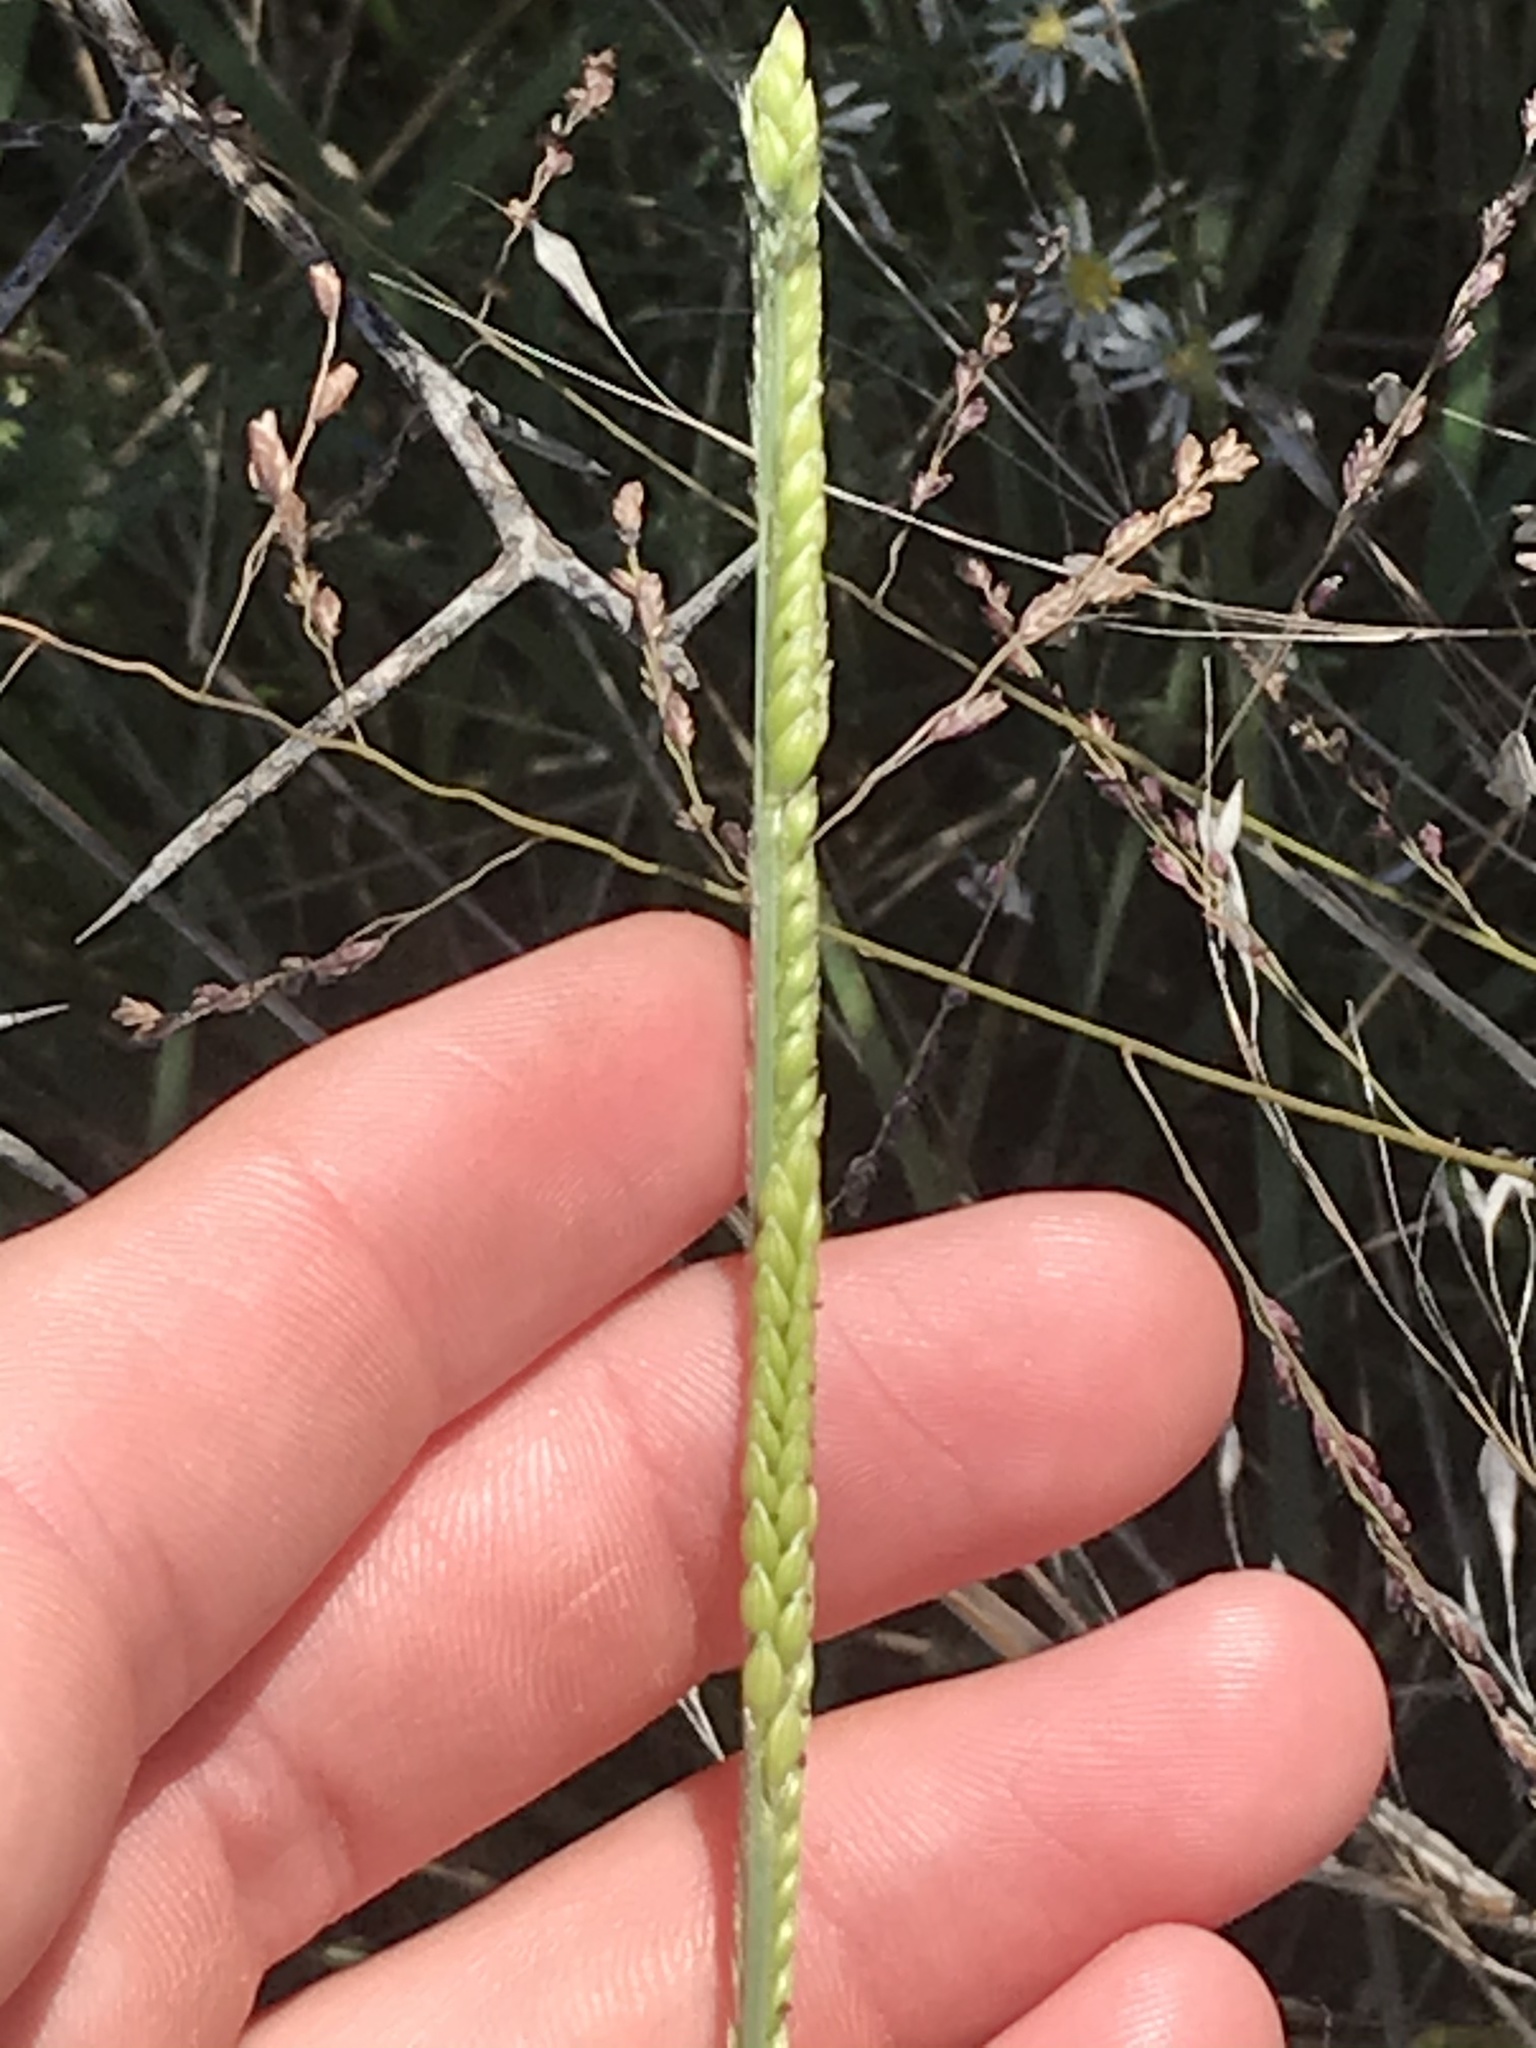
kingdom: Plantae
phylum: Tracheophyta
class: Liliopsida
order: Poales
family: Poaceae
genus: Eriochloa
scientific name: Eriochloa sericea
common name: Texas cup grass
